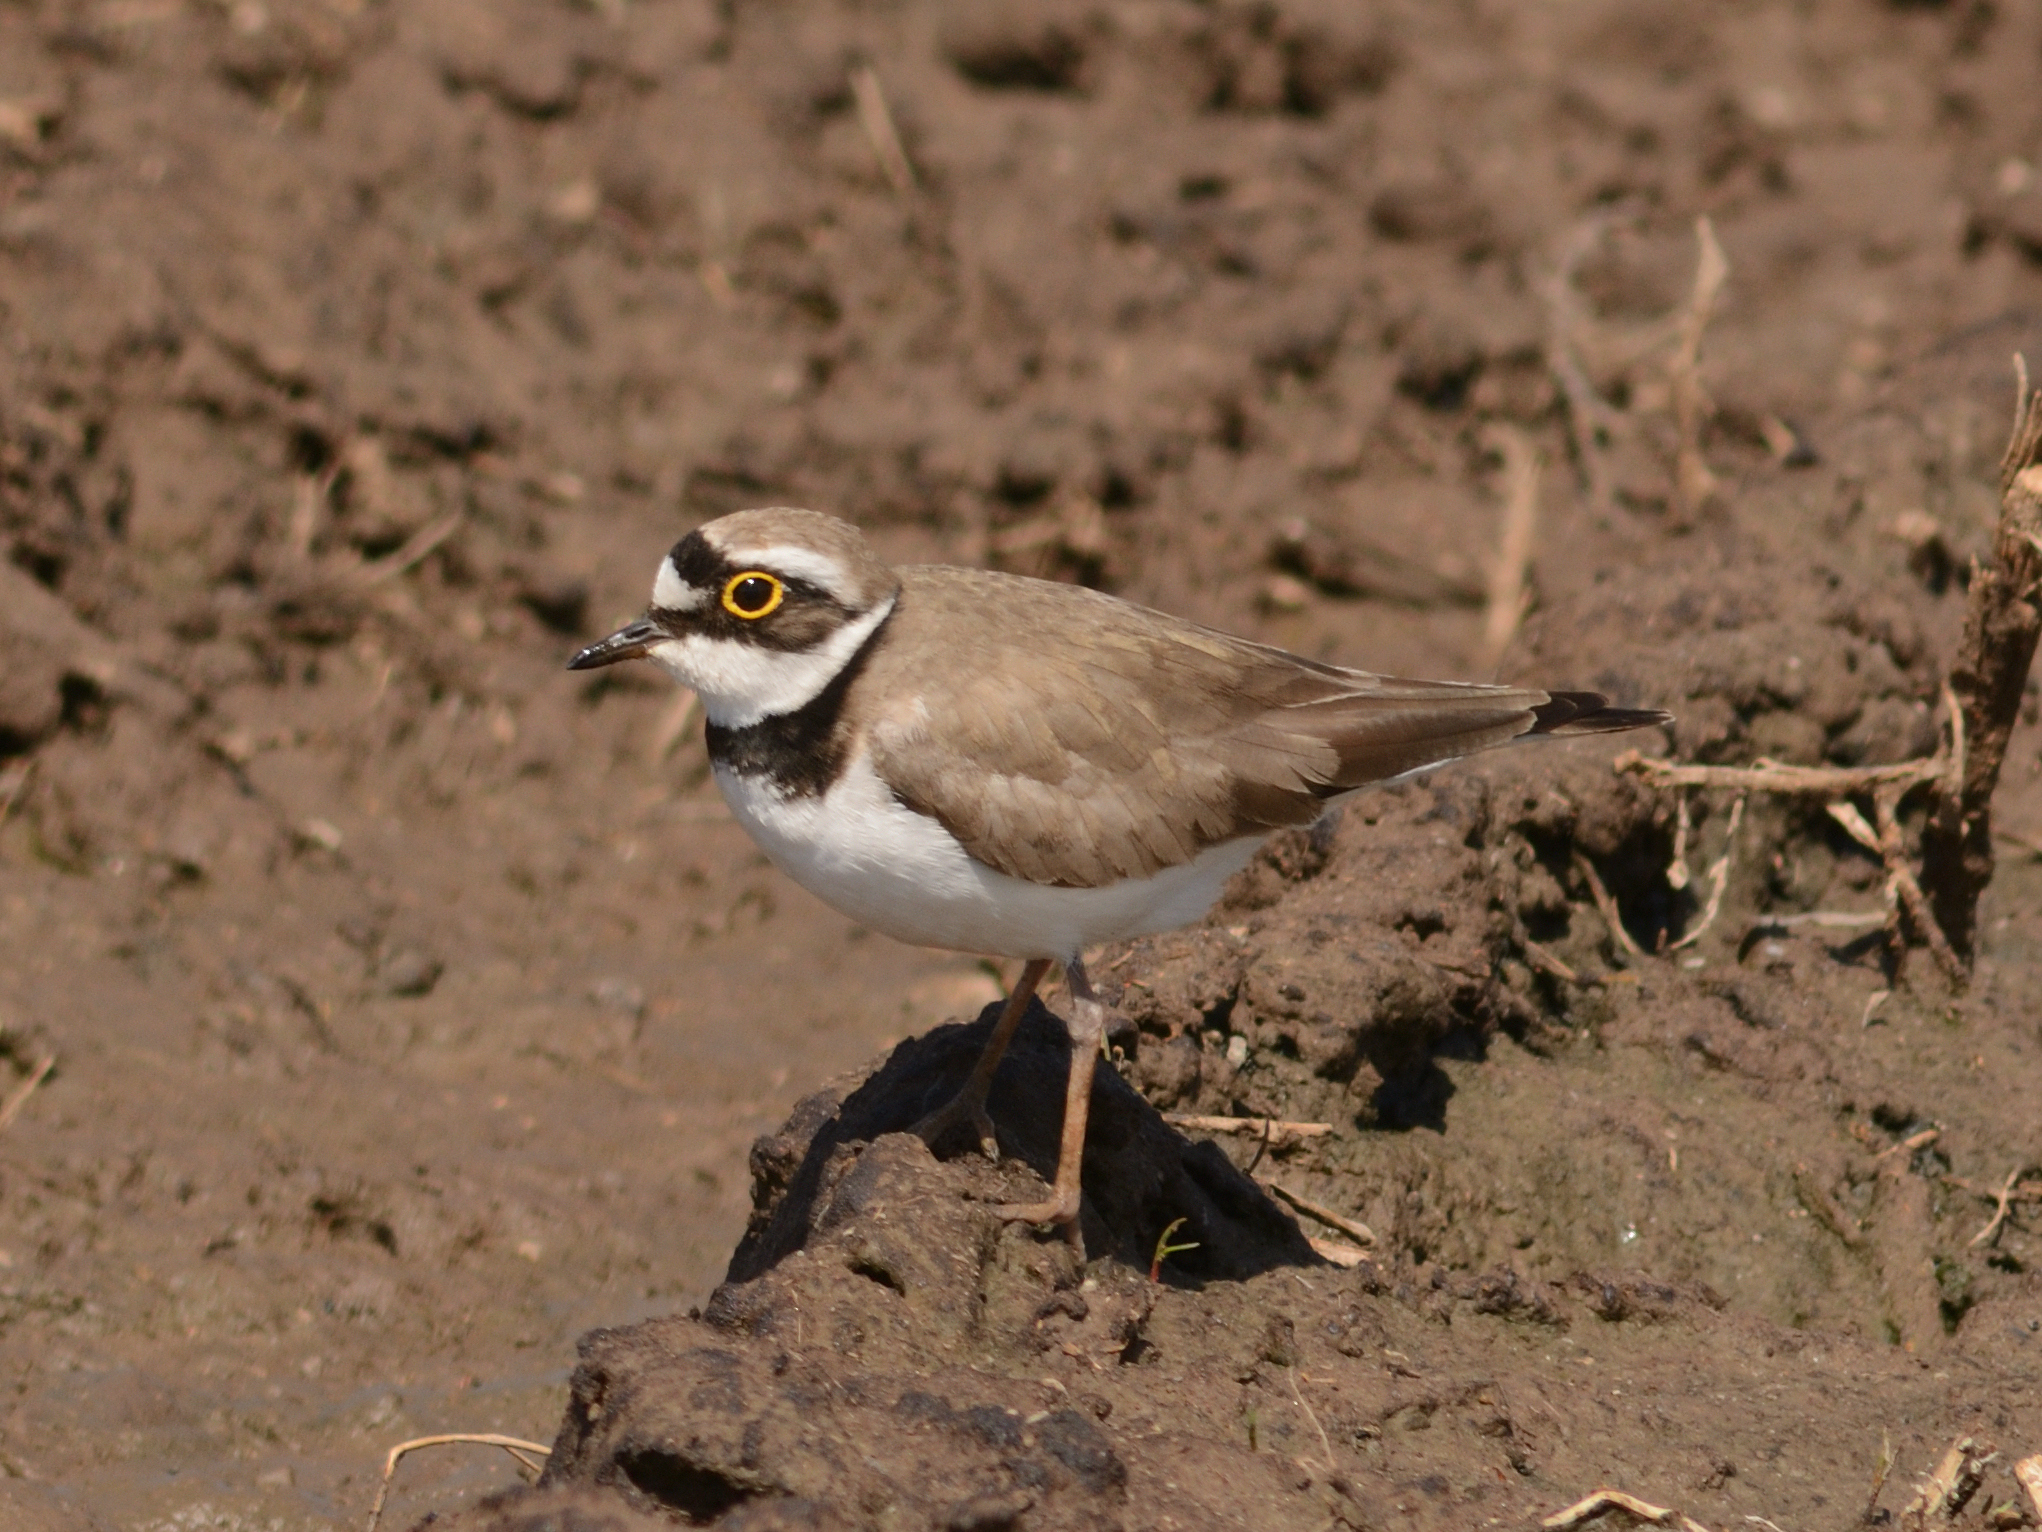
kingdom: Animalia
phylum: Chordata
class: Aves
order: Charadriiformes
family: Charadriidae
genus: Charadrius
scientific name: Charadrius dubius
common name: Little ringed plover
